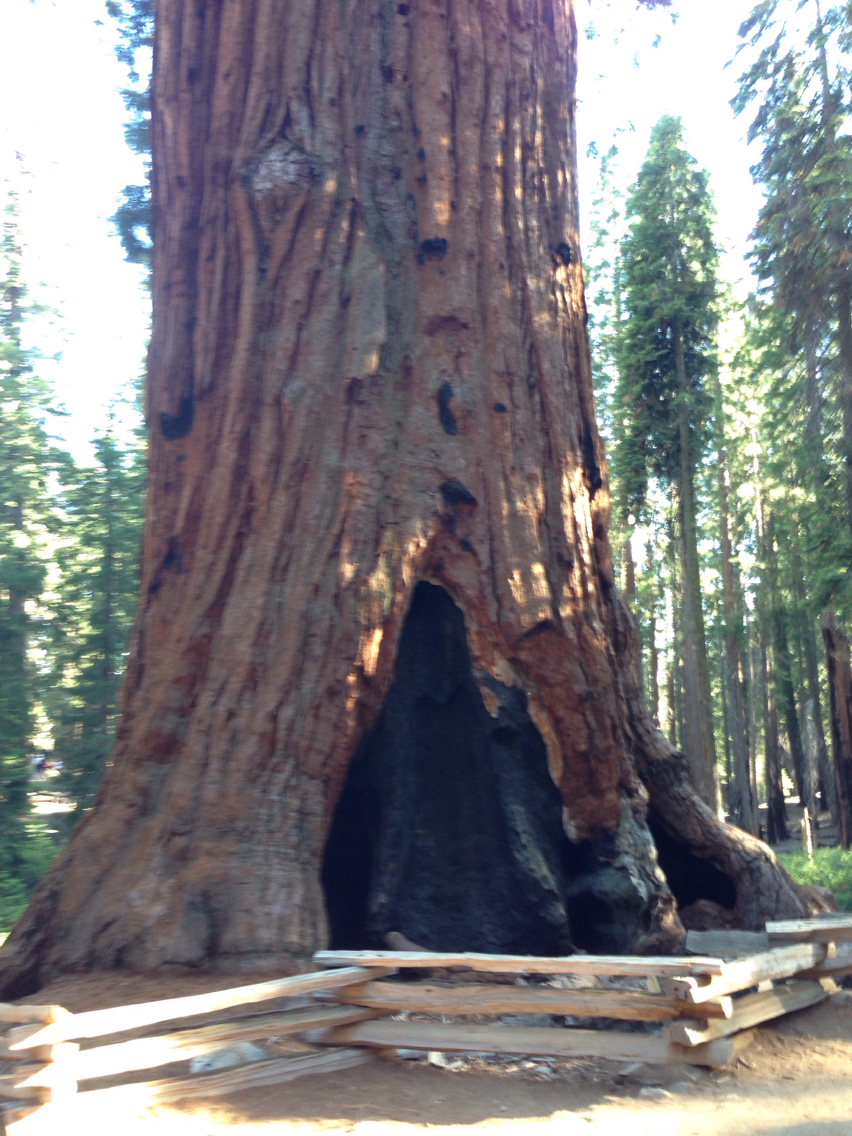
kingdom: Plantae
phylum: Tracheophyta
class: Pinopsida
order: Pinales
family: Cupressaceae
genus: Sequoiadendron
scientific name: Sequoiadendron giganteum
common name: Wellingtonia
